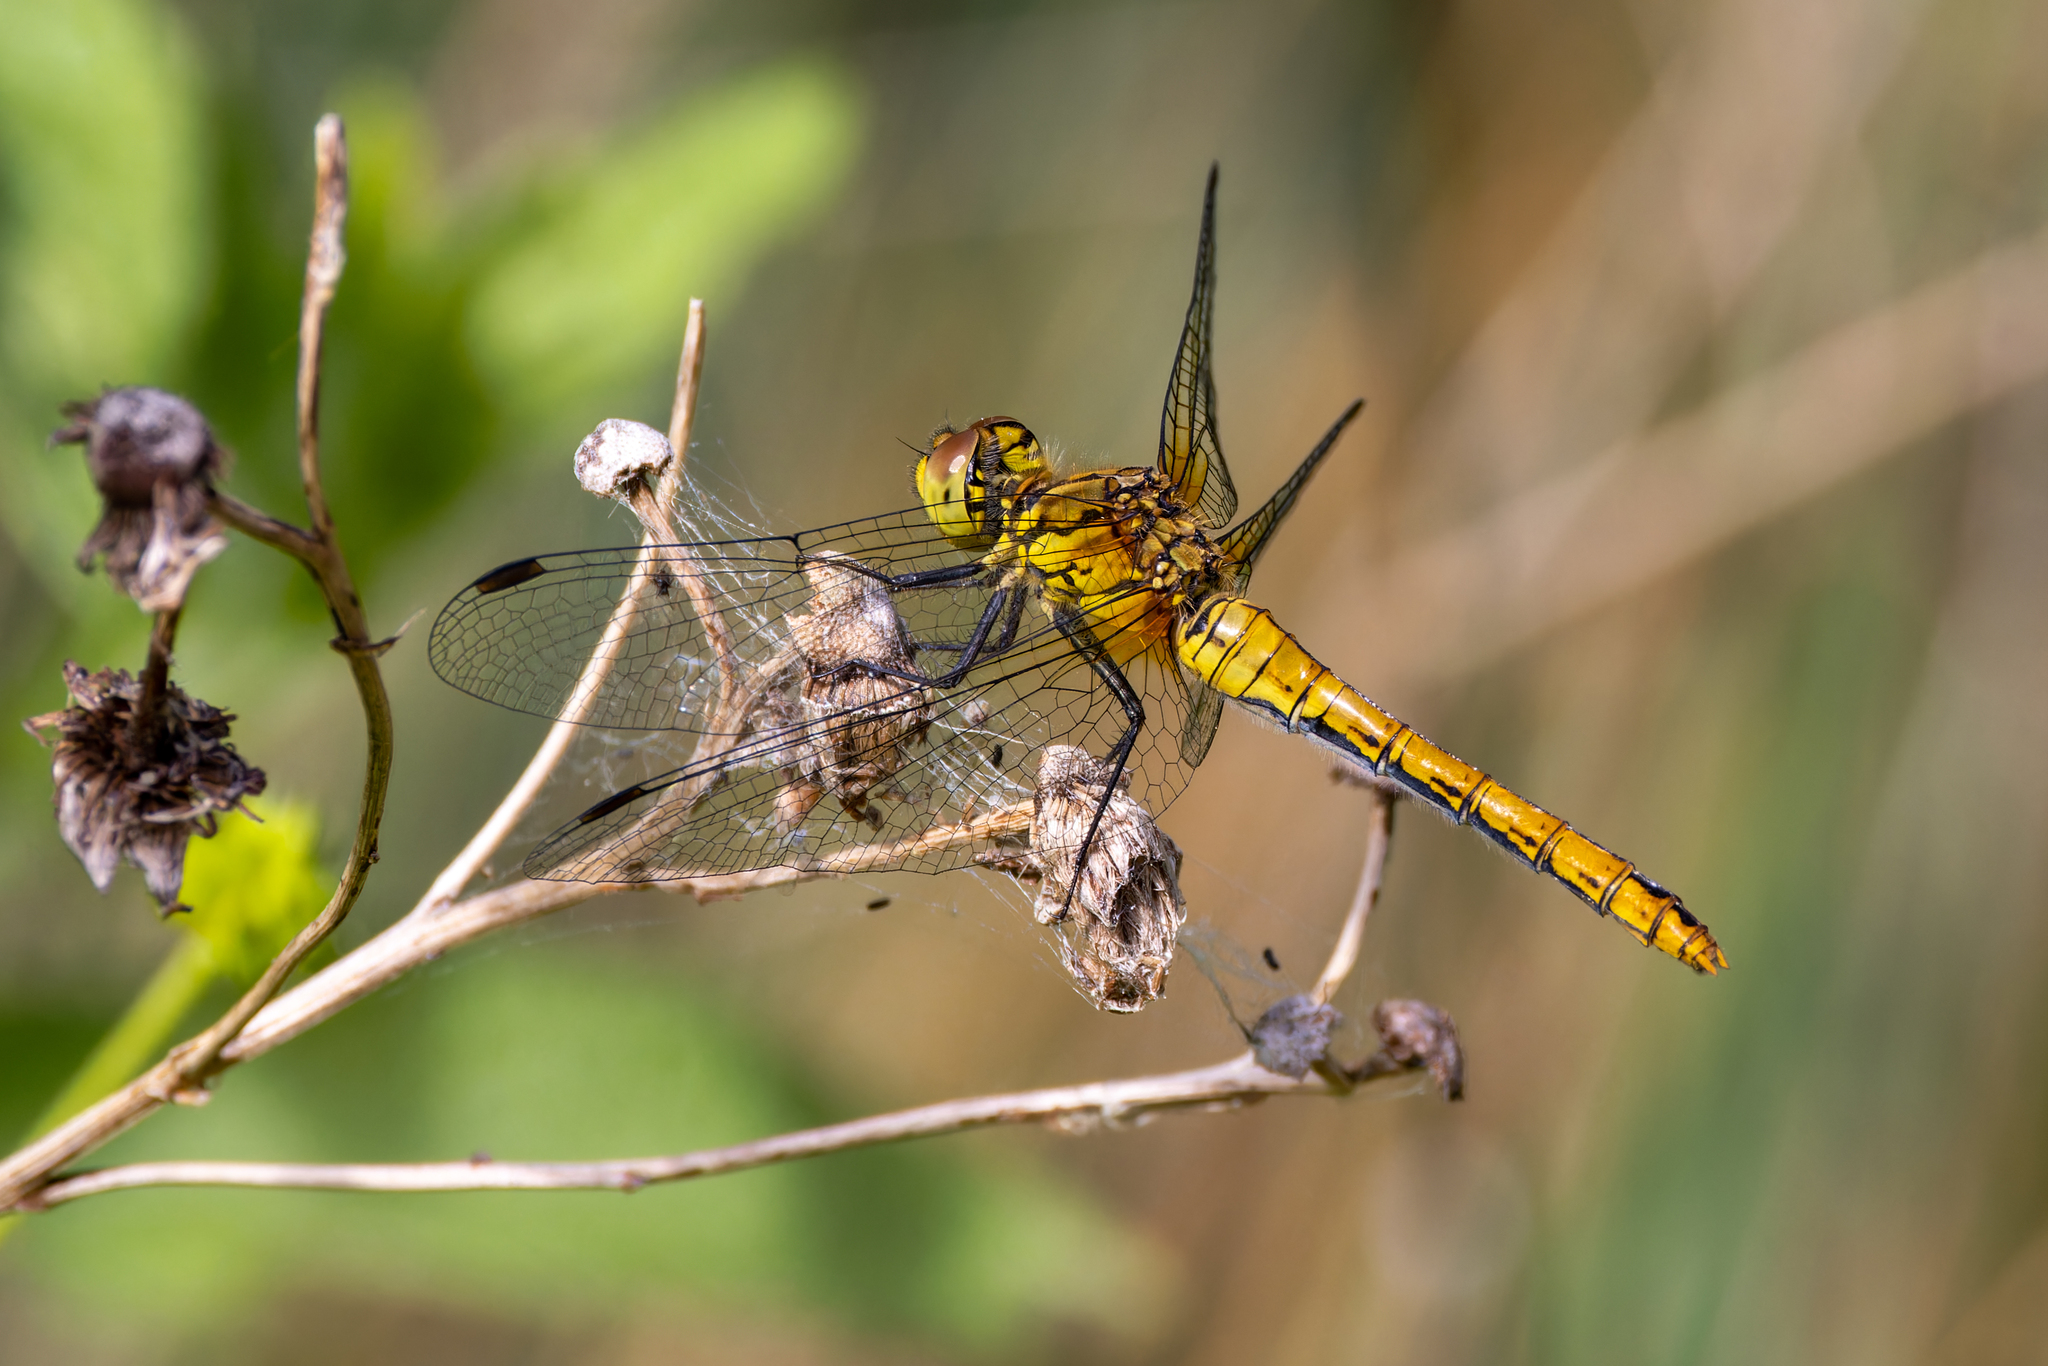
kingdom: Animalia
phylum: Arthropoda
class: Insecta
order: Odonata
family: Libellulidae
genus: Sympetrum
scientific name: Sympetrum sanguineum
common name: Ruddy darter
